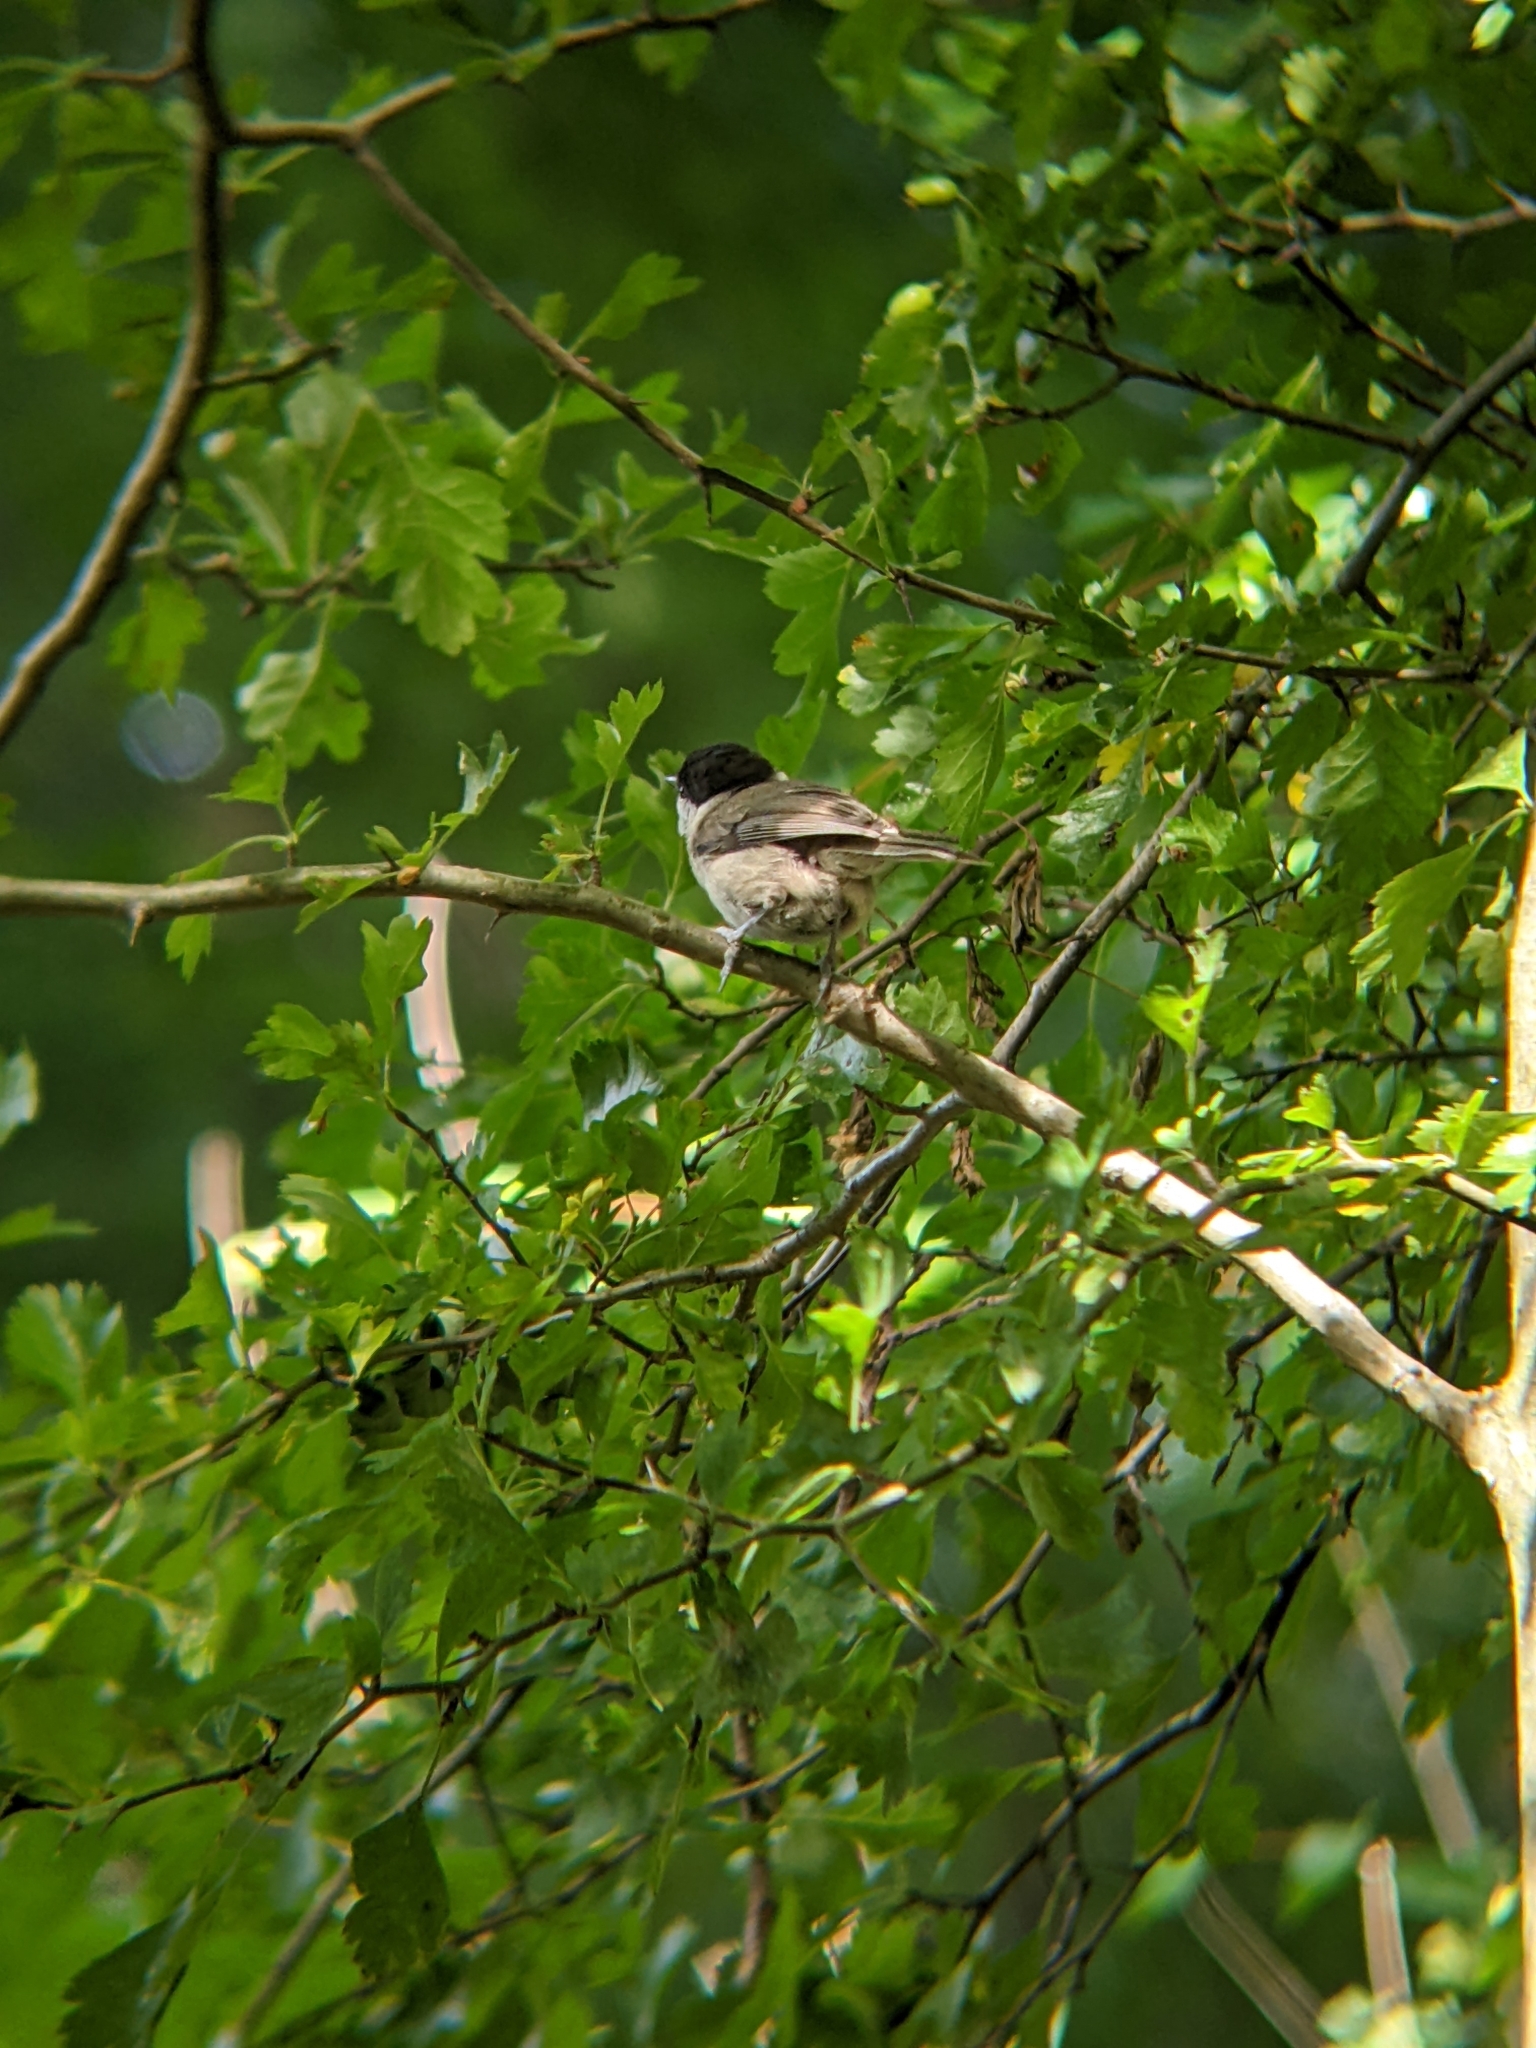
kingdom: Animalia
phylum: Chordata
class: Aves
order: Passeriformes
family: Paridae
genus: Poecile
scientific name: Poecile palustris
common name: Marsh tit
